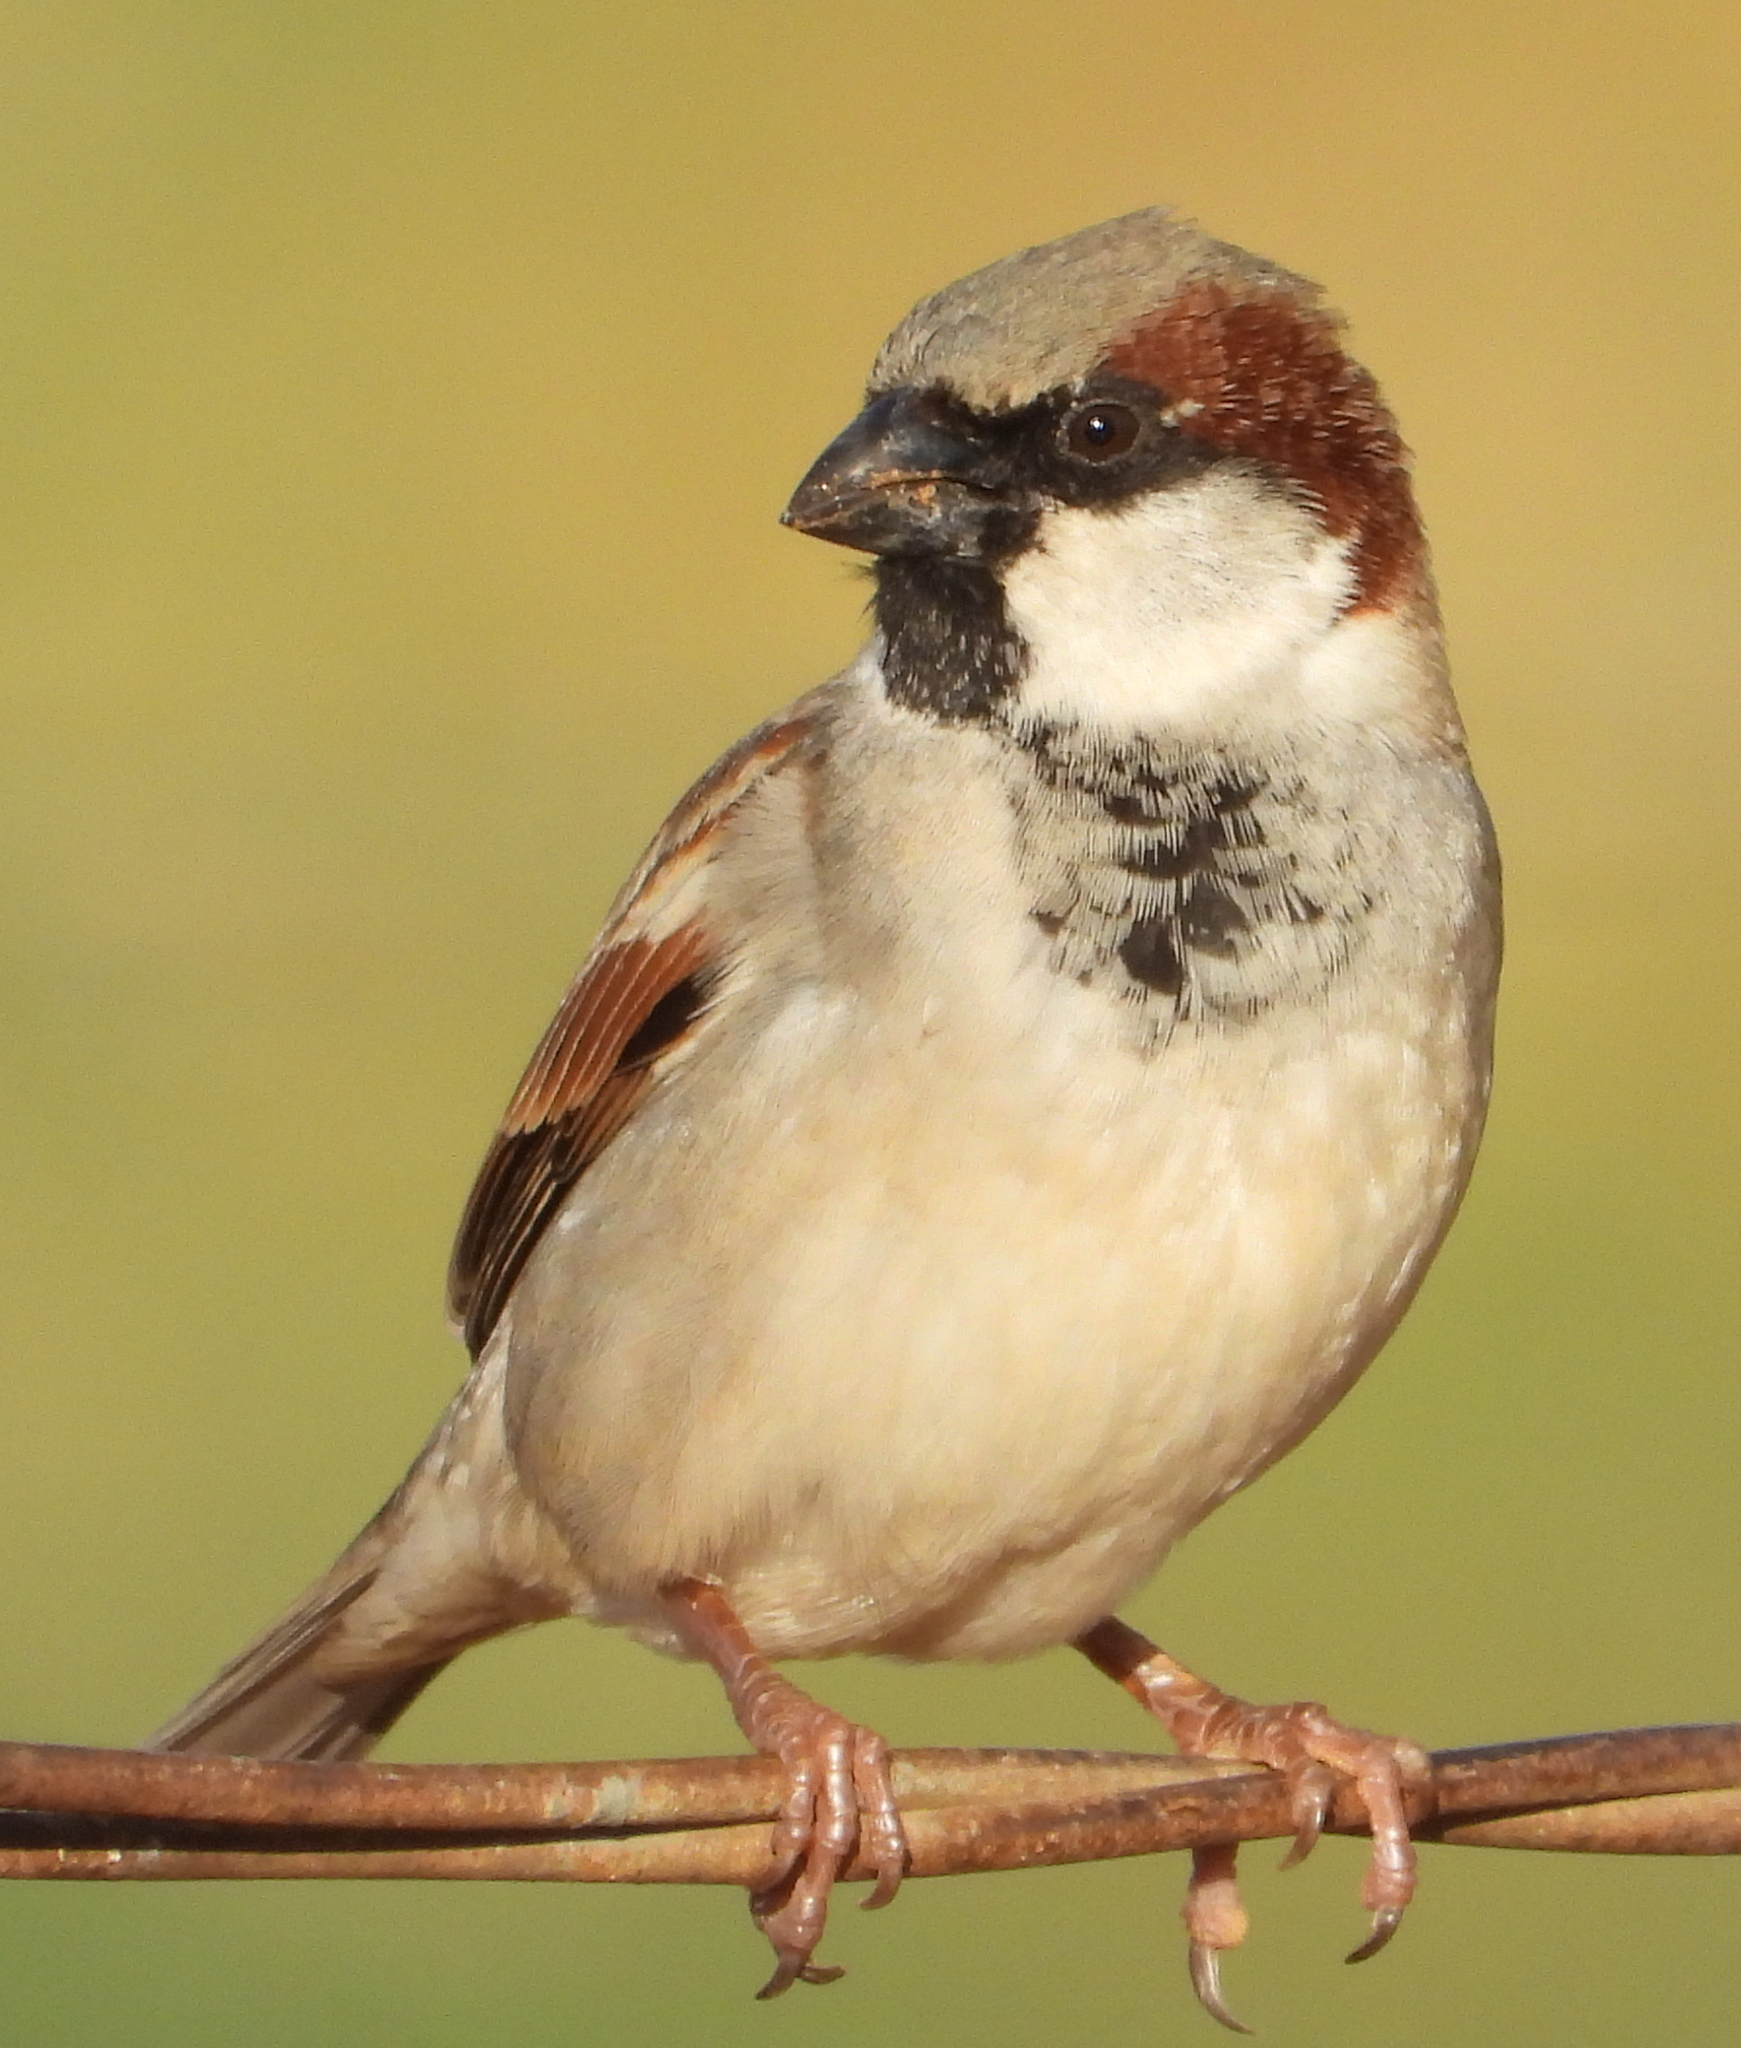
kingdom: Animalia
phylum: Chordata
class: Aves
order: Passeriformes
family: Passeridae
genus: Passer
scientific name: Passer domesticus
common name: House sparrow
